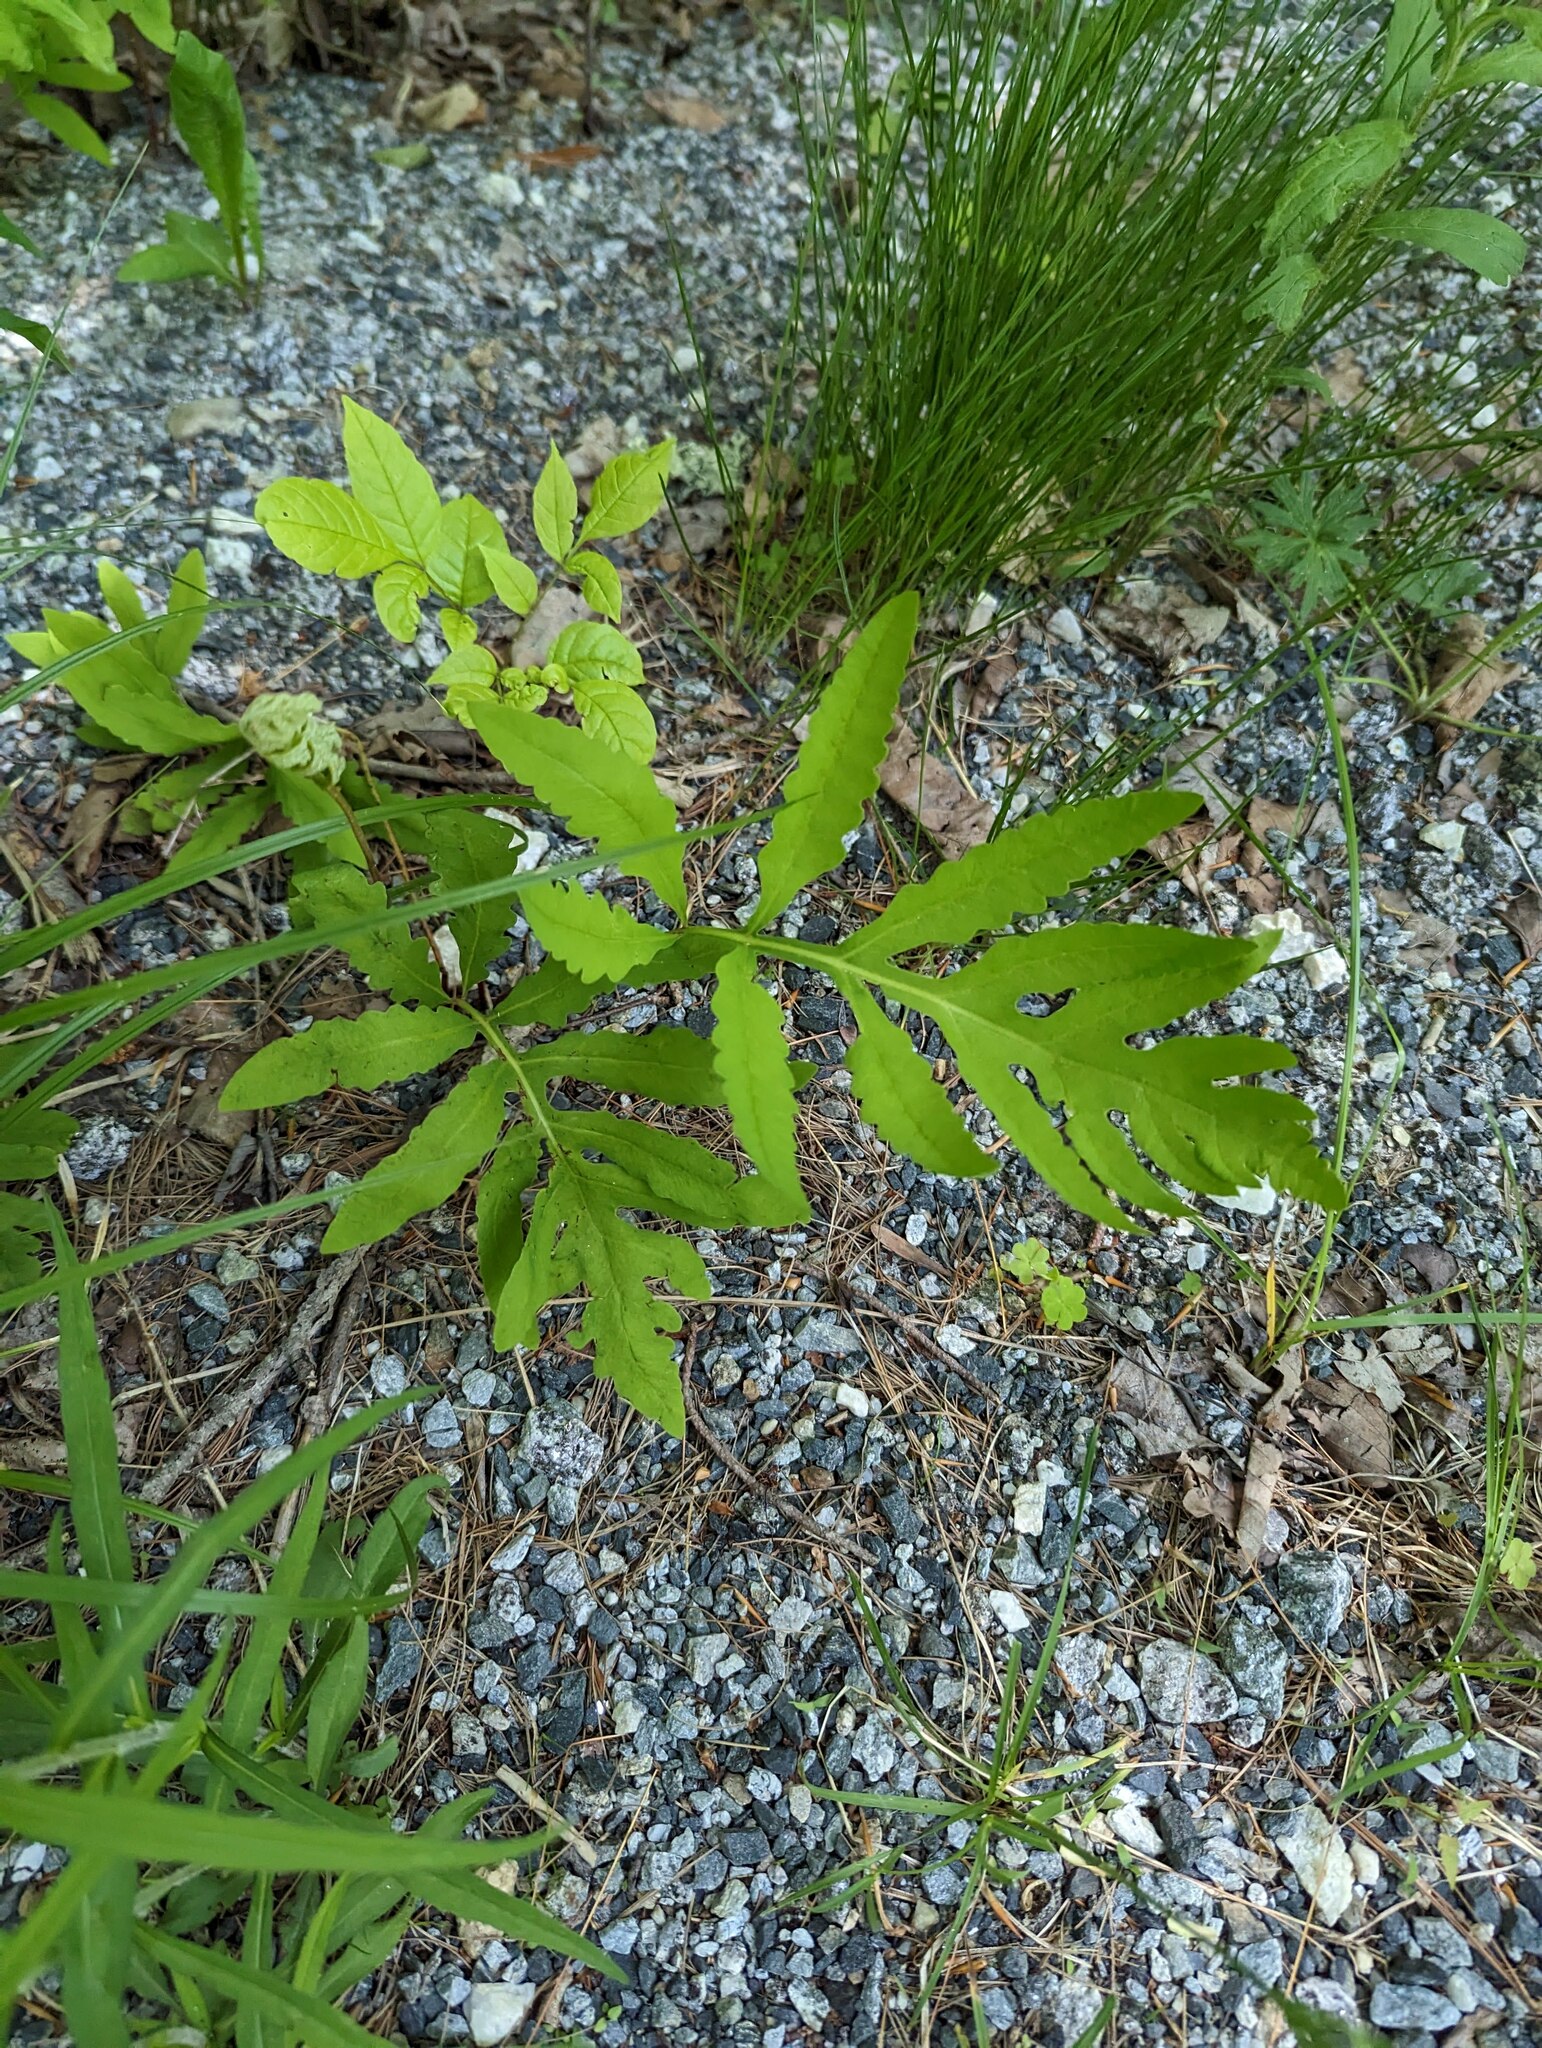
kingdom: Plantae
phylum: Tracheophyta
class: Polypodiopsida
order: Polypodiales
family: Onocleaceae
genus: Onoclea
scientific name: Onoclea sensibilis
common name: Sensitive fern
